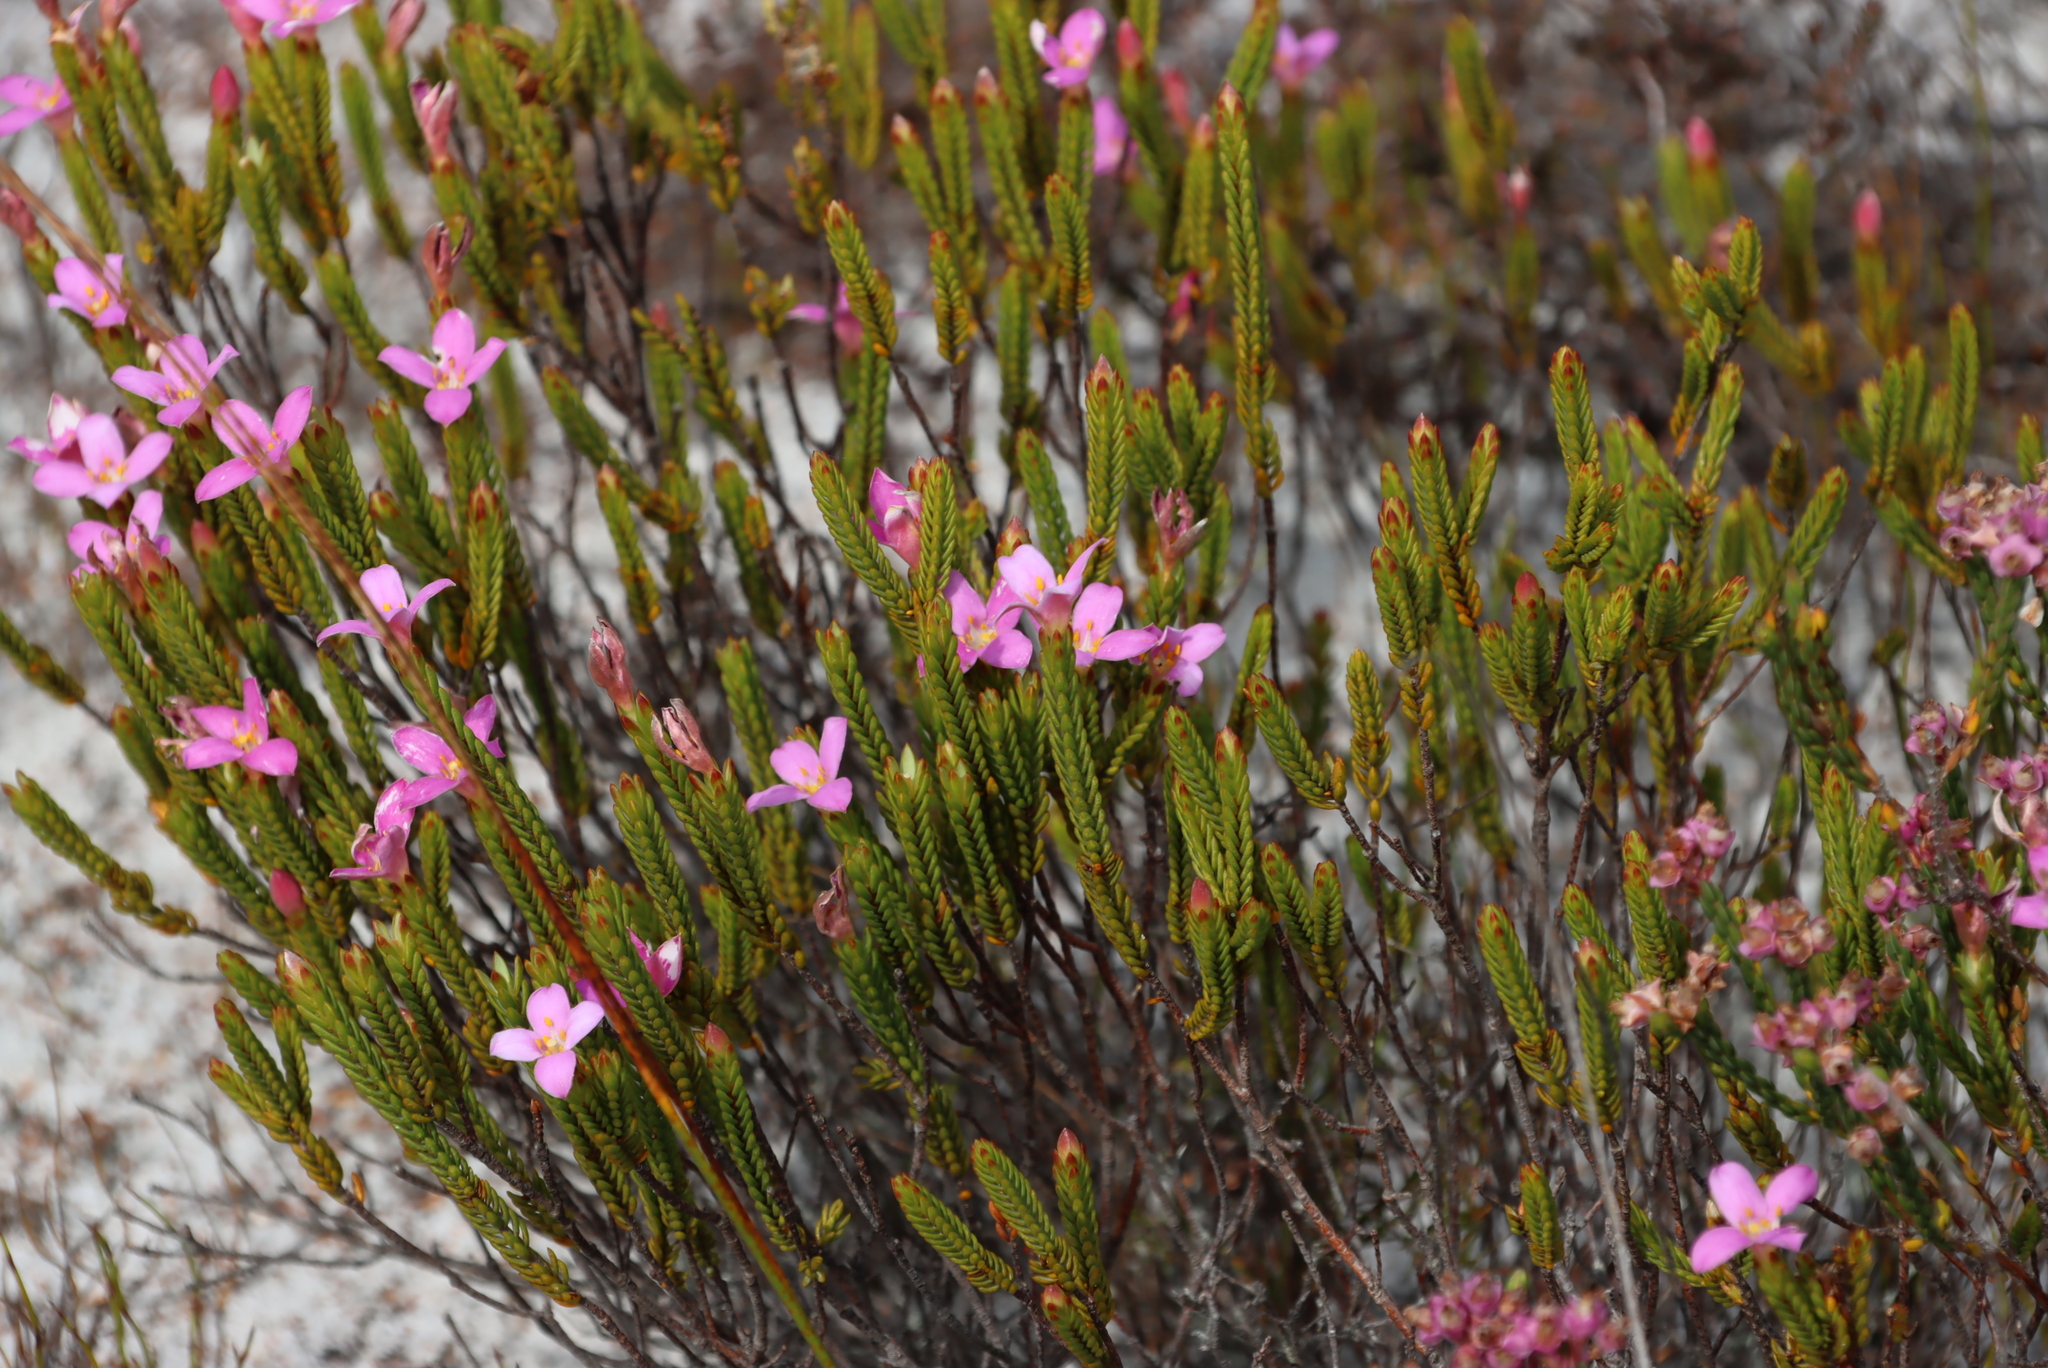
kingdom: Plantae
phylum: Tracheophyta
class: Magnoliopsida
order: Malvales
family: Thymelaeaceae
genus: Lachnaea
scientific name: Lachnaea grandiflora
